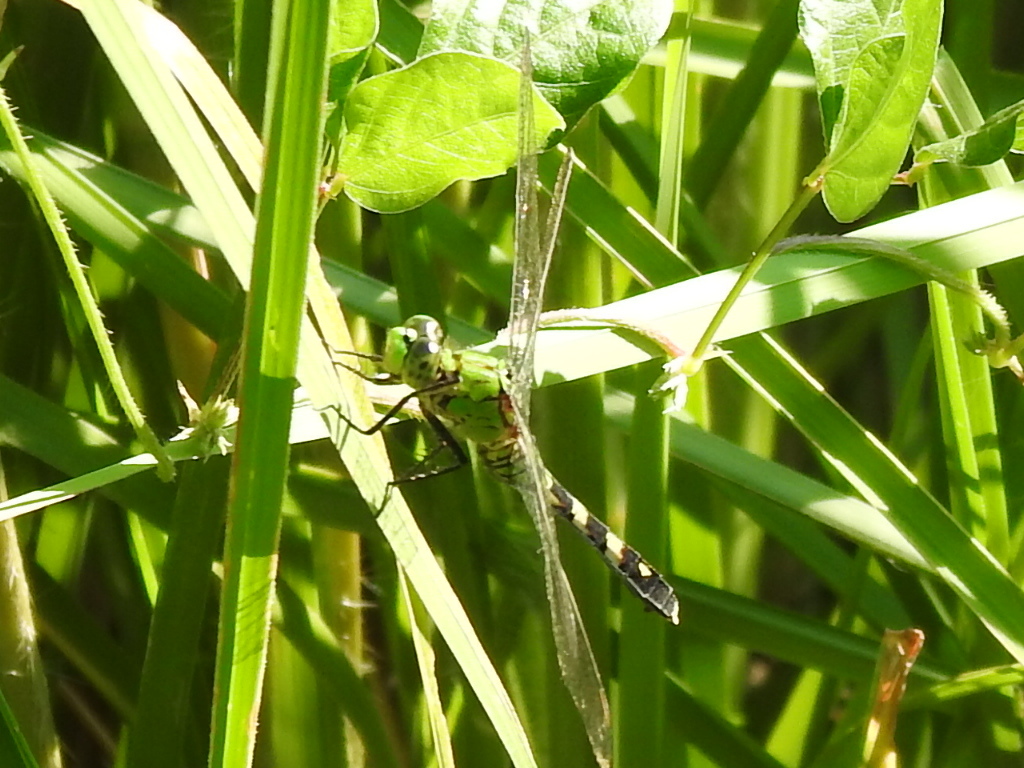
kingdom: Animalia
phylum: Arthropoda
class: Insecta
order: Odonata
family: Libellulidae
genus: Erythemis
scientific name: Erythemis simplicicollis
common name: Eastern pondhawk
